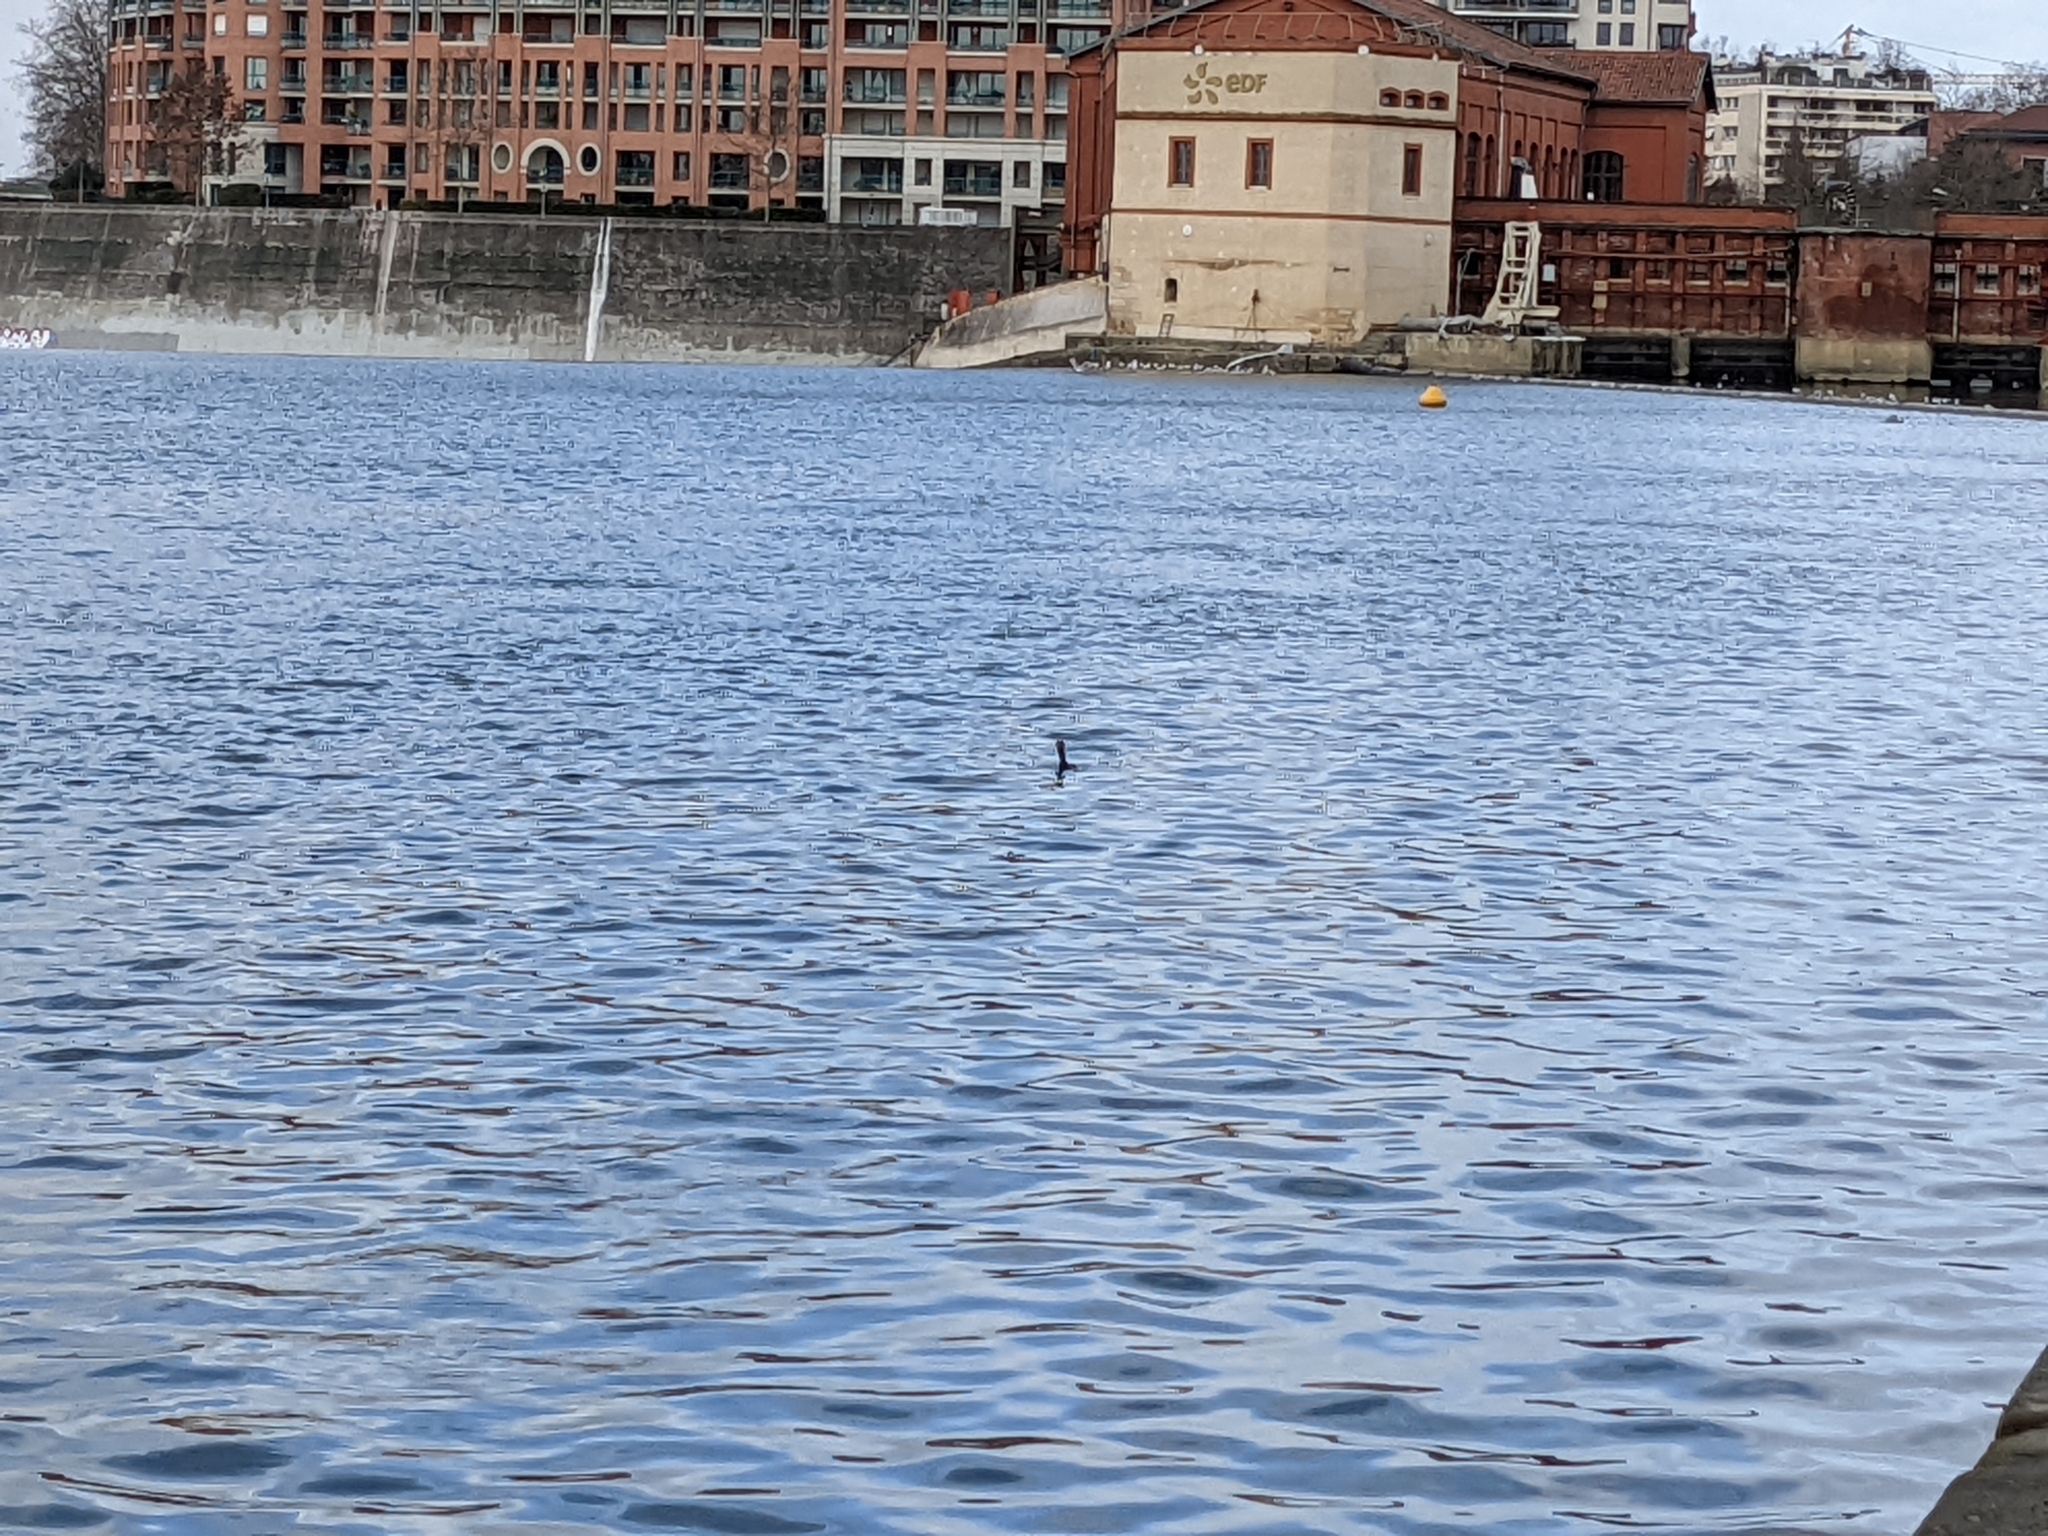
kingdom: Animalia
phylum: Chordata
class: Aves
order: Suliformes
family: Phalacrocoracidae
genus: Phalacrocorax
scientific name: Phalacrocorax carbo
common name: Great cormorant
